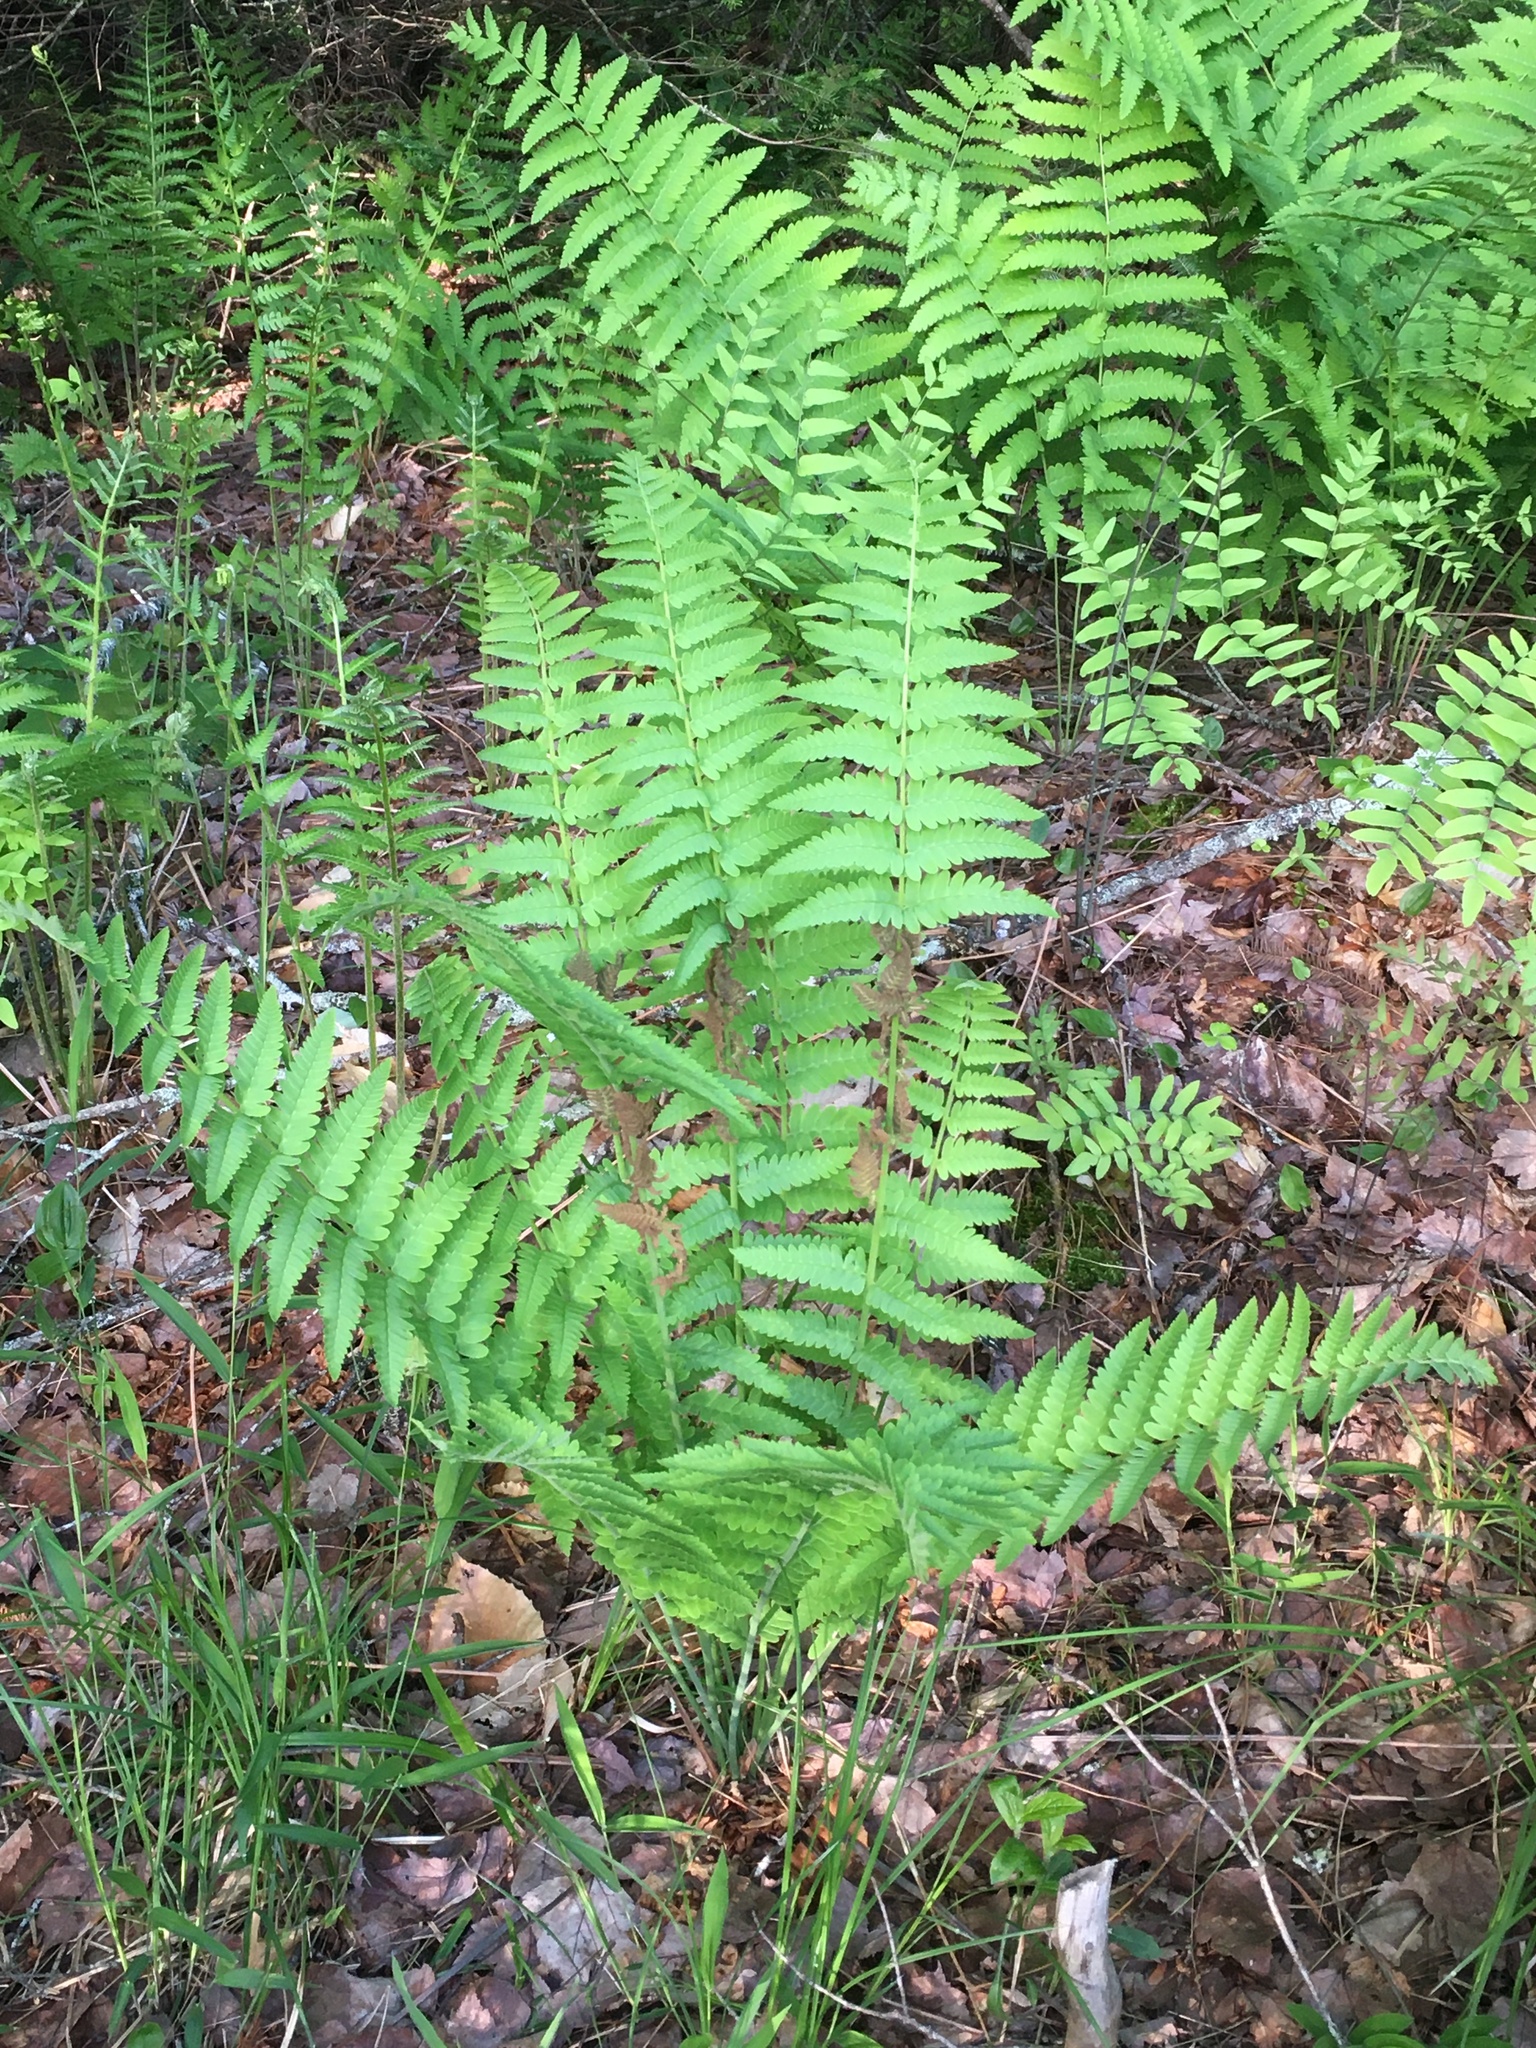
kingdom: Plantae
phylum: Tracheophyta
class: Polypodiopsida
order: Osmundales
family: Osmundaceae
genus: Claytosmunda
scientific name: Claytosmunda claytoniana
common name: Clayton's fern
